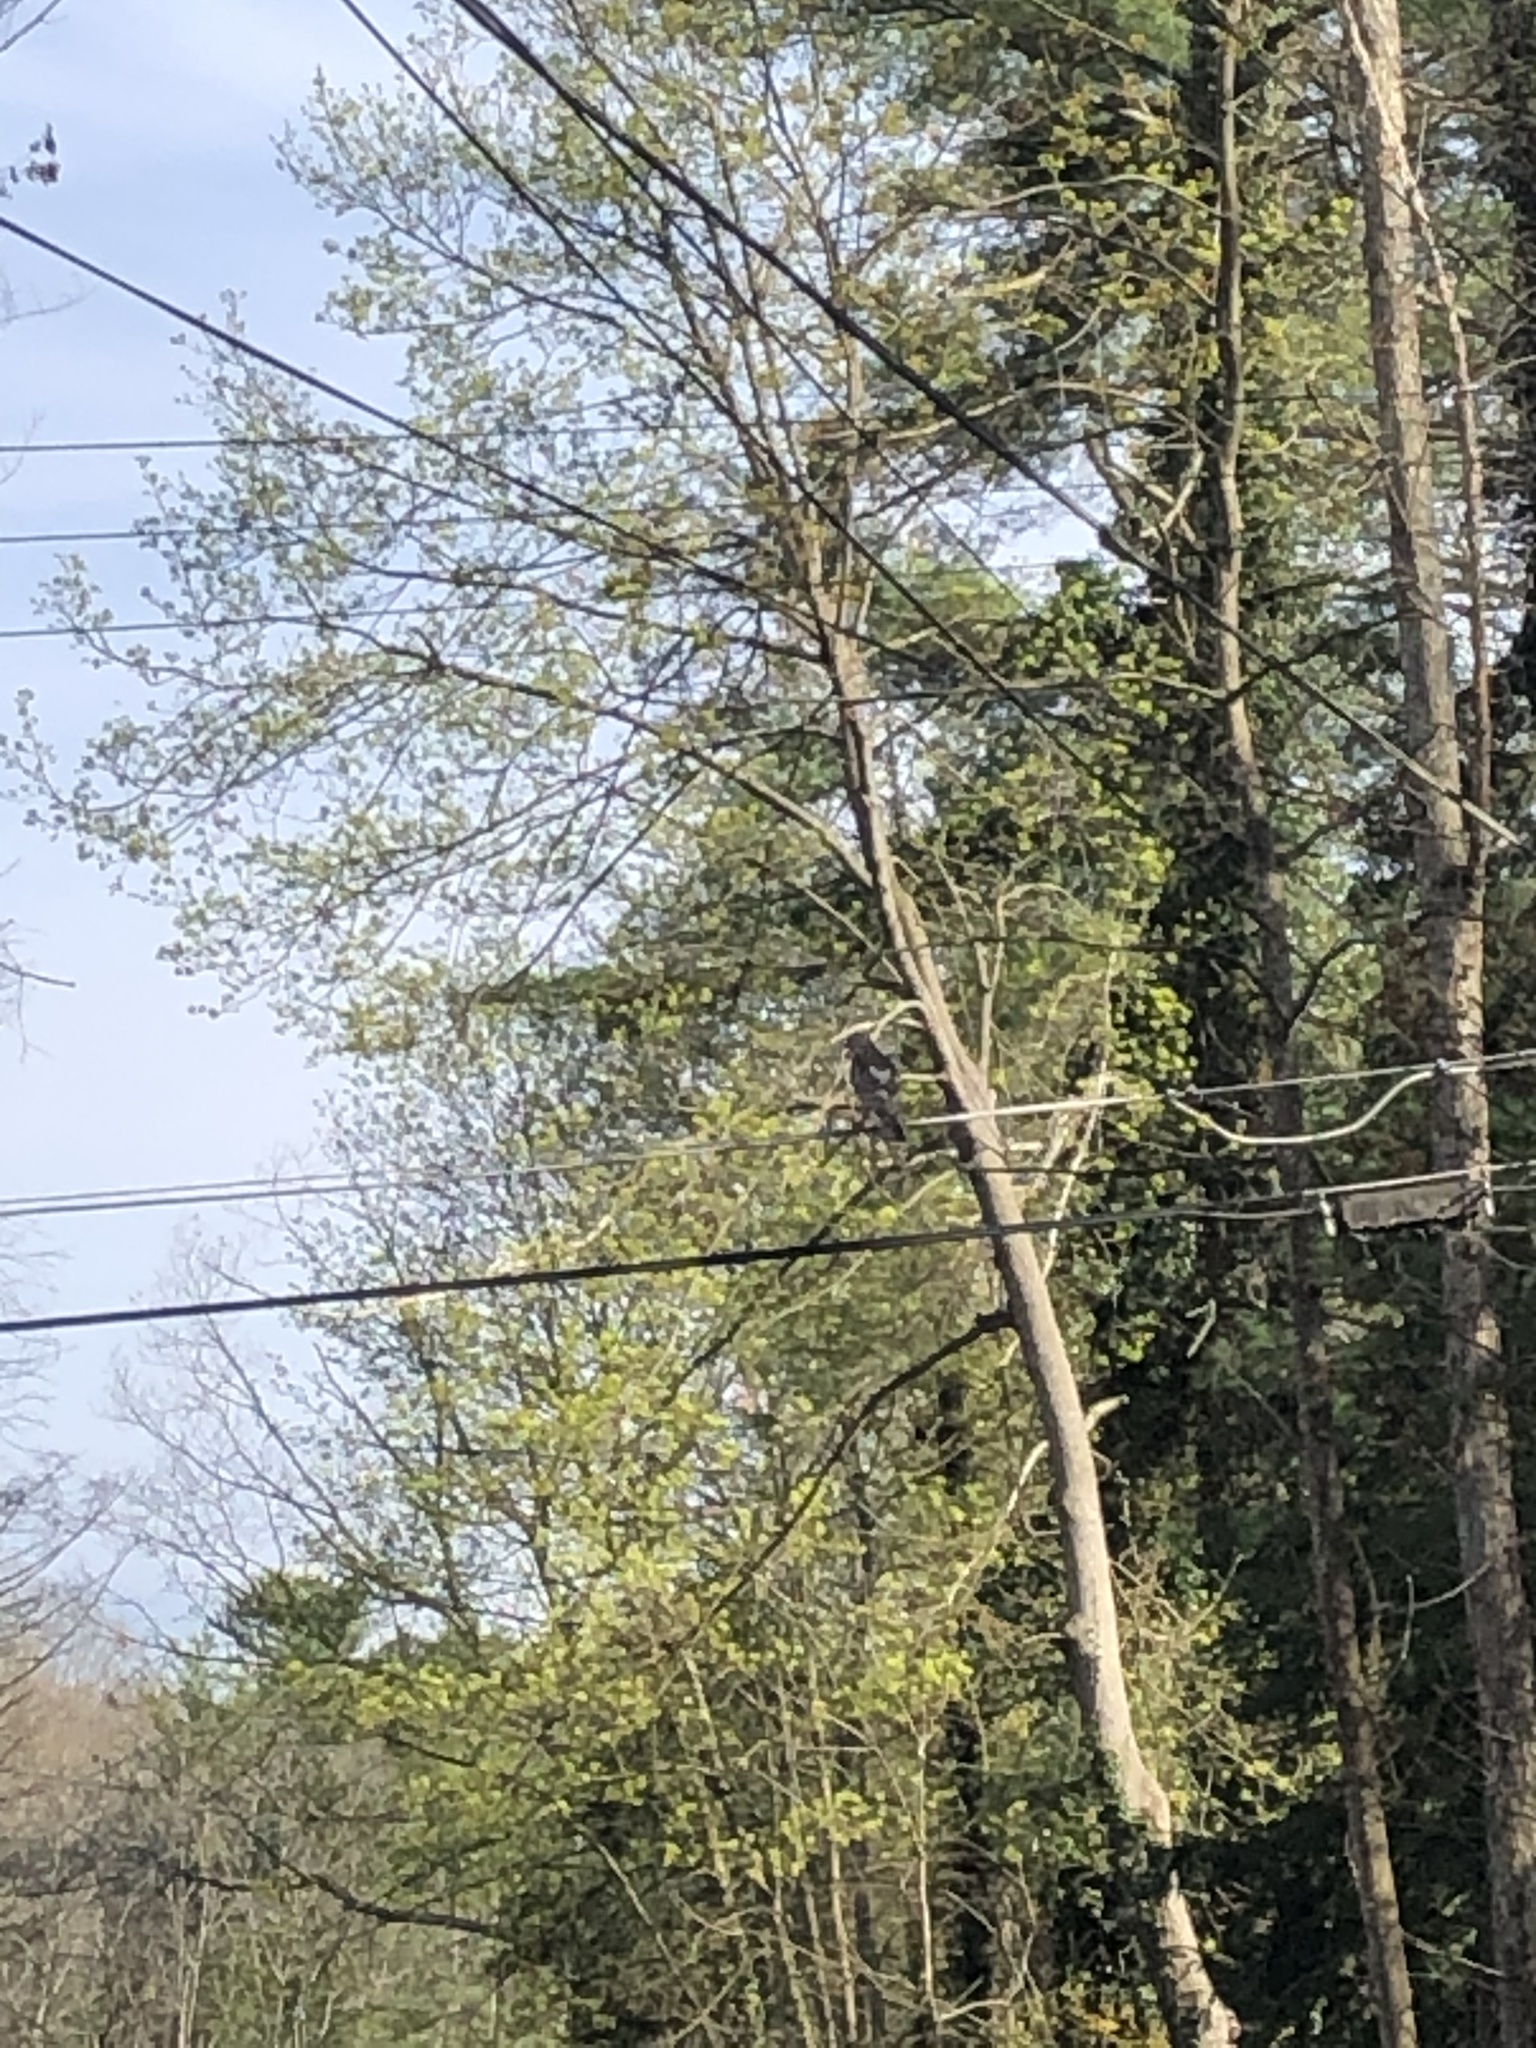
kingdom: Animalia
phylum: Chordata
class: Aves
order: Accipitriformes
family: Accipitridae
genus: Buteo
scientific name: Buteo lineatus
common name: Red-shouldered hawk
